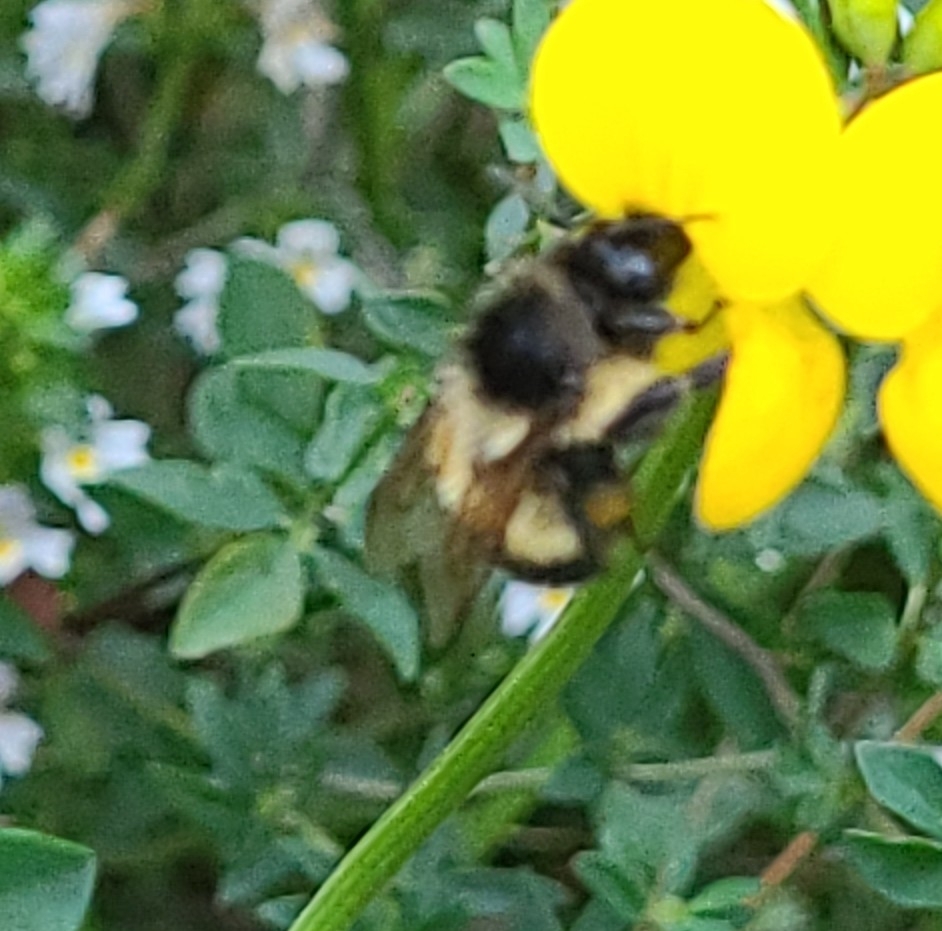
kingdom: Animalia
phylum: Arthropoda
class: Insecta
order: Hymenoptera
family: Apidae
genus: Bombus
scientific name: Bombus vagans
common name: Half-black bumble bee
